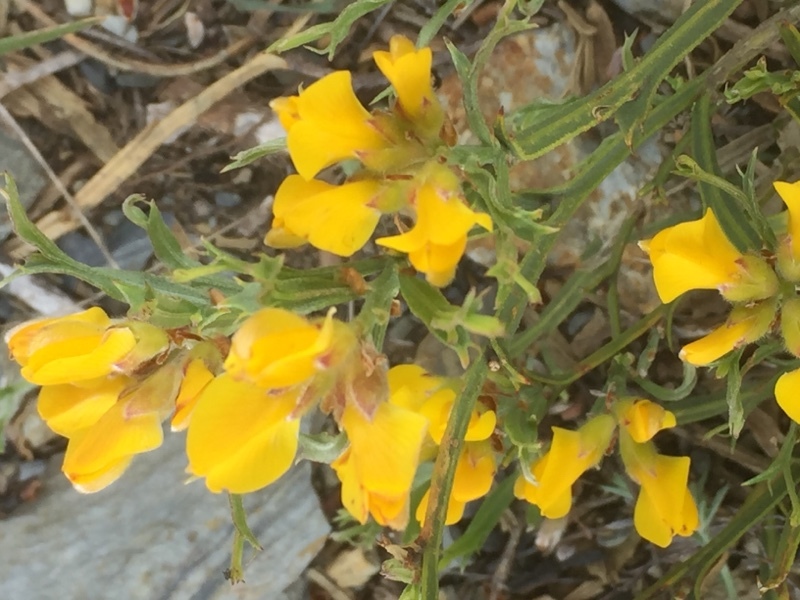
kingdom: Plantae
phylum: Tracheophyta
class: Magnoliopsida
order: Fabales
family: Fabaceae
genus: Genista
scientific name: Genista tridentata
